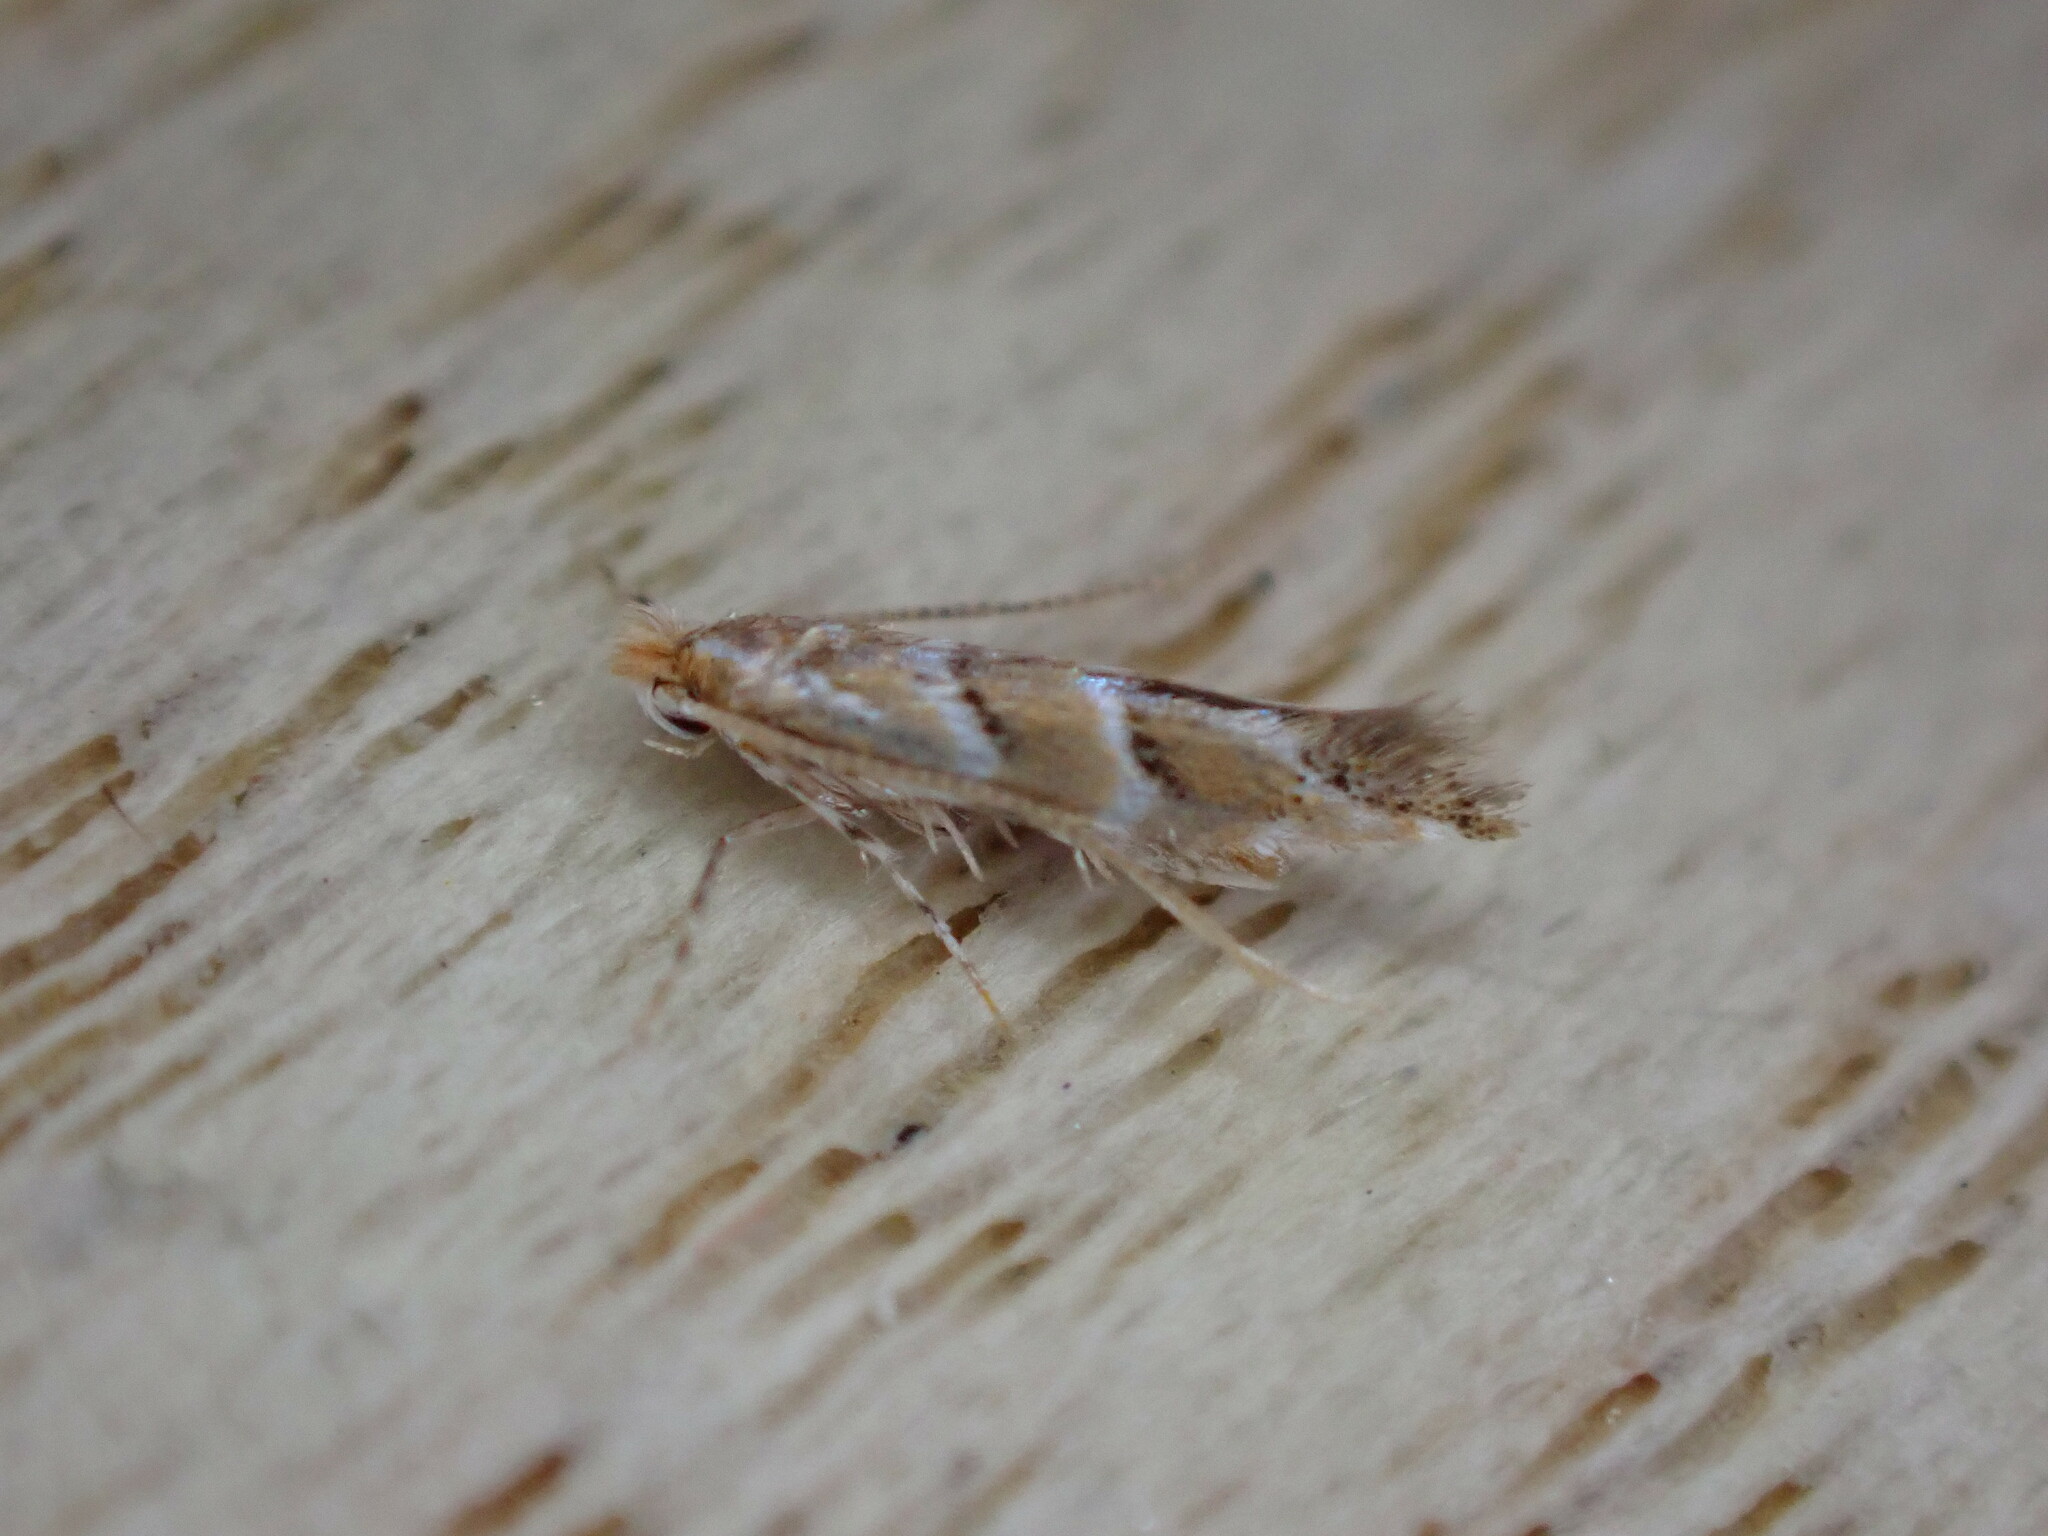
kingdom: Animalia
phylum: Arthropoda
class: Insecta
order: Lepidoptera
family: Gracillariidae
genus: Cameraria
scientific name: Cameraria ohridella
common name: Horse-chestnut leaf-miner
